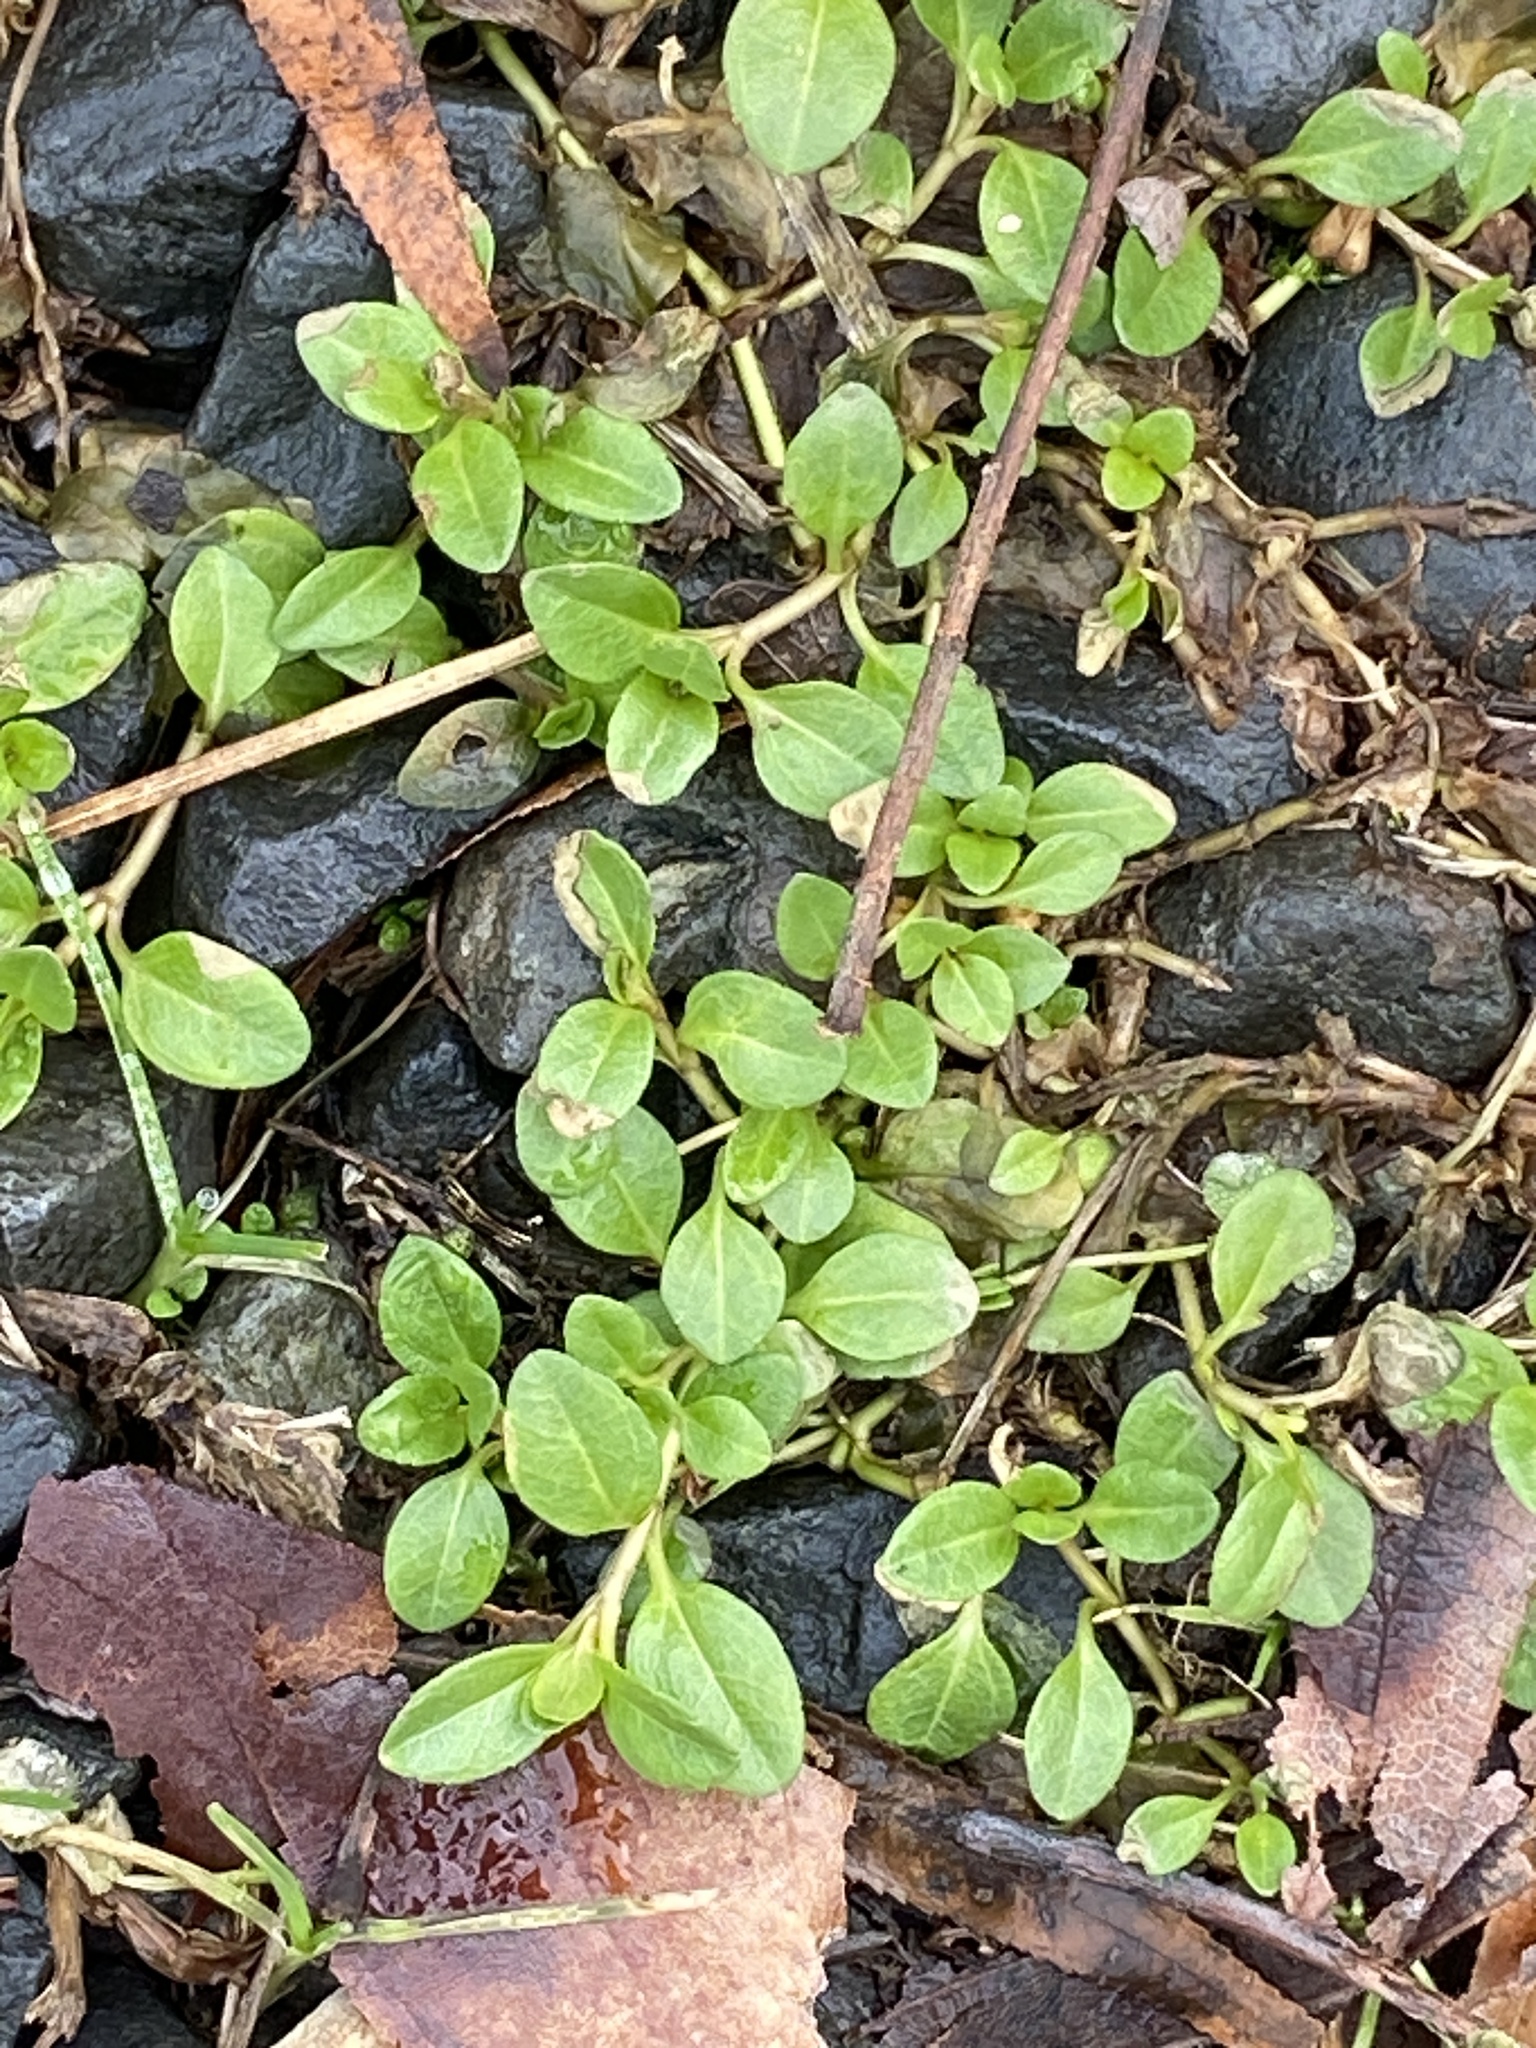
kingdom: Plantae
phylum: Tracheophyta
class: Magnoliopsida
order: Lamiales
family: Plantaginaceae
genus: Veronica
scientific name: Veronica serpyllifolia
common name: Thyme-leaved speedwell
